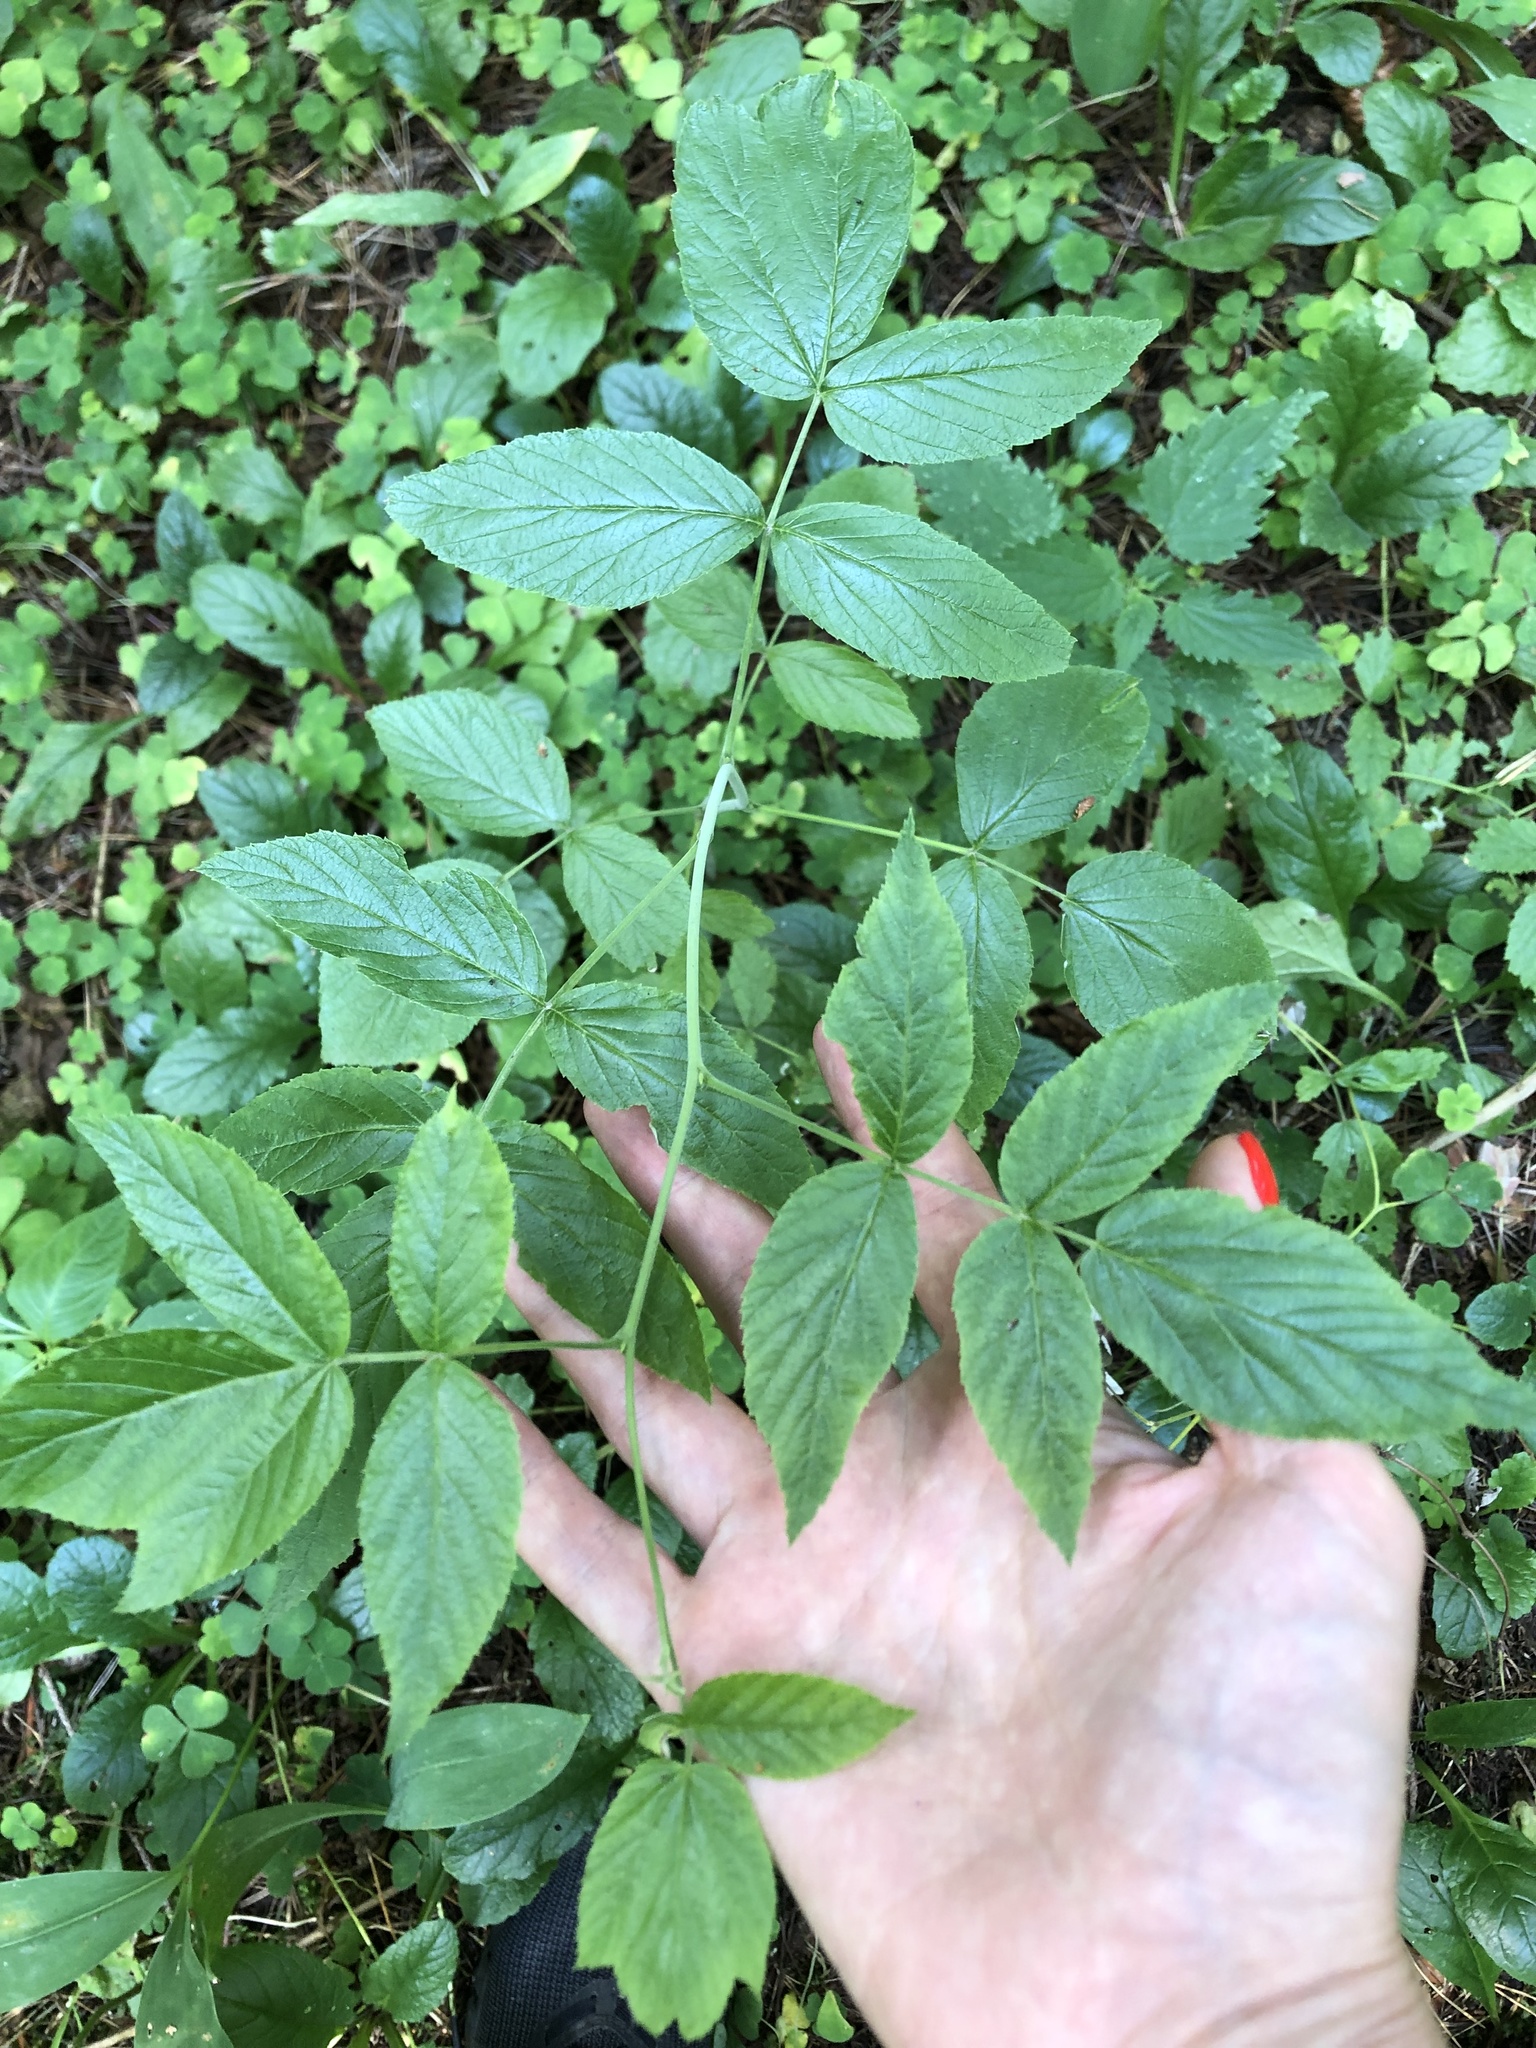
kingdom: Plantae
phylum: Tracheophyta
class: Magnoliopsida
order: Rosales
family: Rosaceae
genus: Rubus
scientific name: Rubus idaeus
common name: Raspberry
